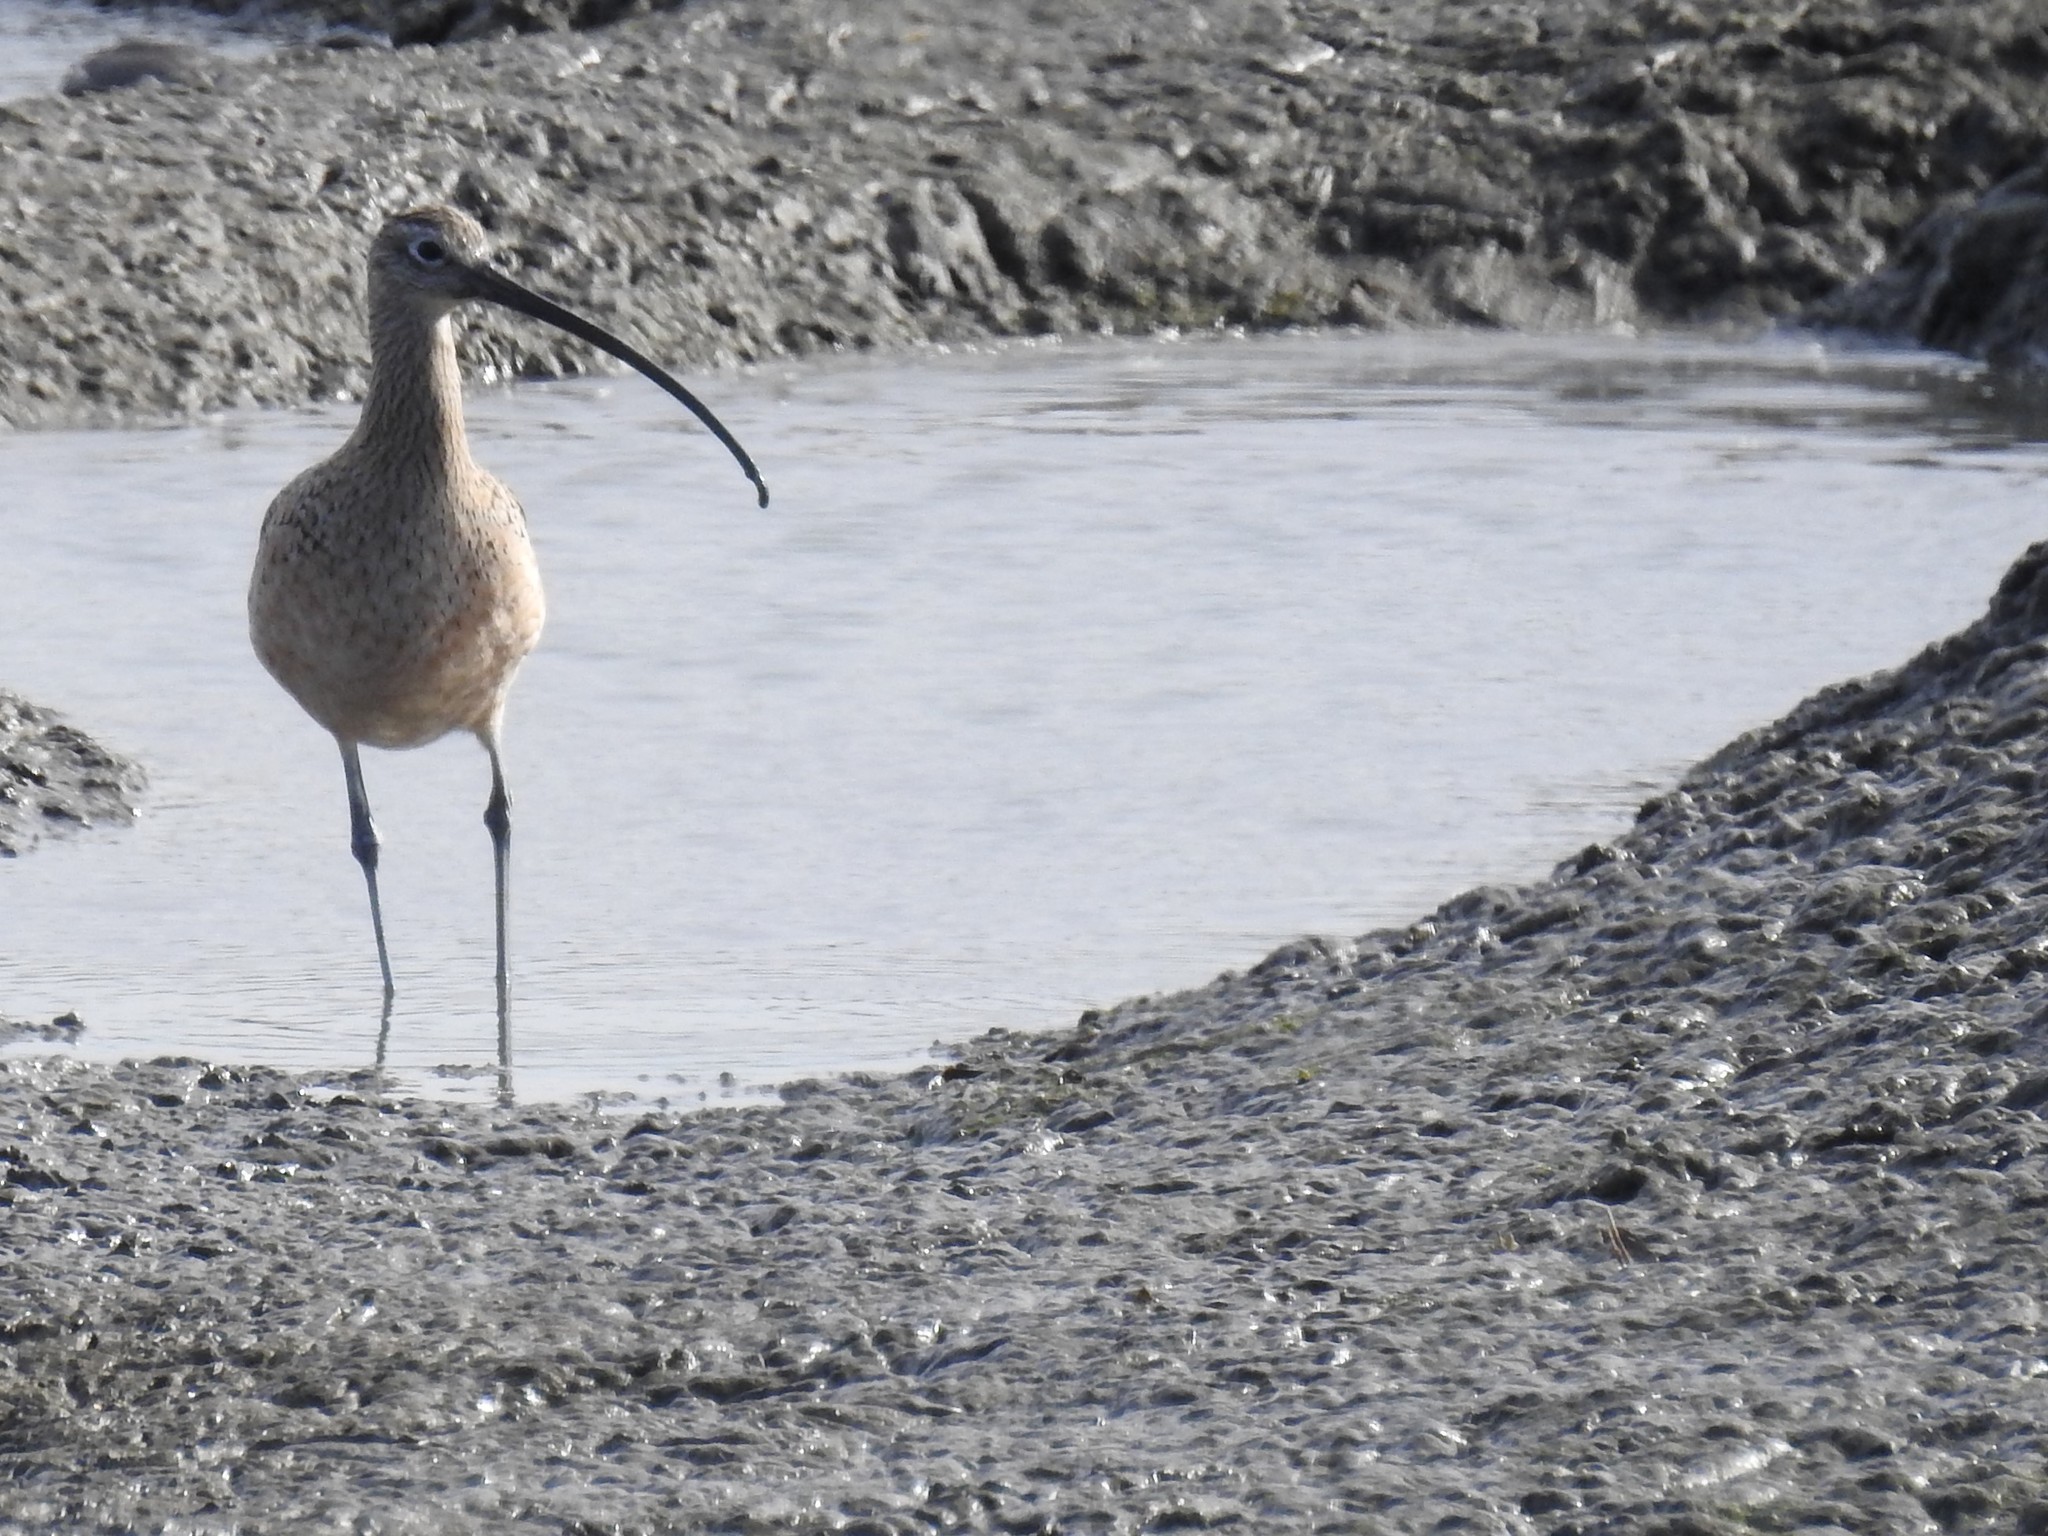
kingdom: Animalia
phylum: Chordata
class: Aves
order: Charadriiformes
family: Scolopacidae
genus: Numenius
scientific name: Numenius americanus
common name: Long-billed curlew
